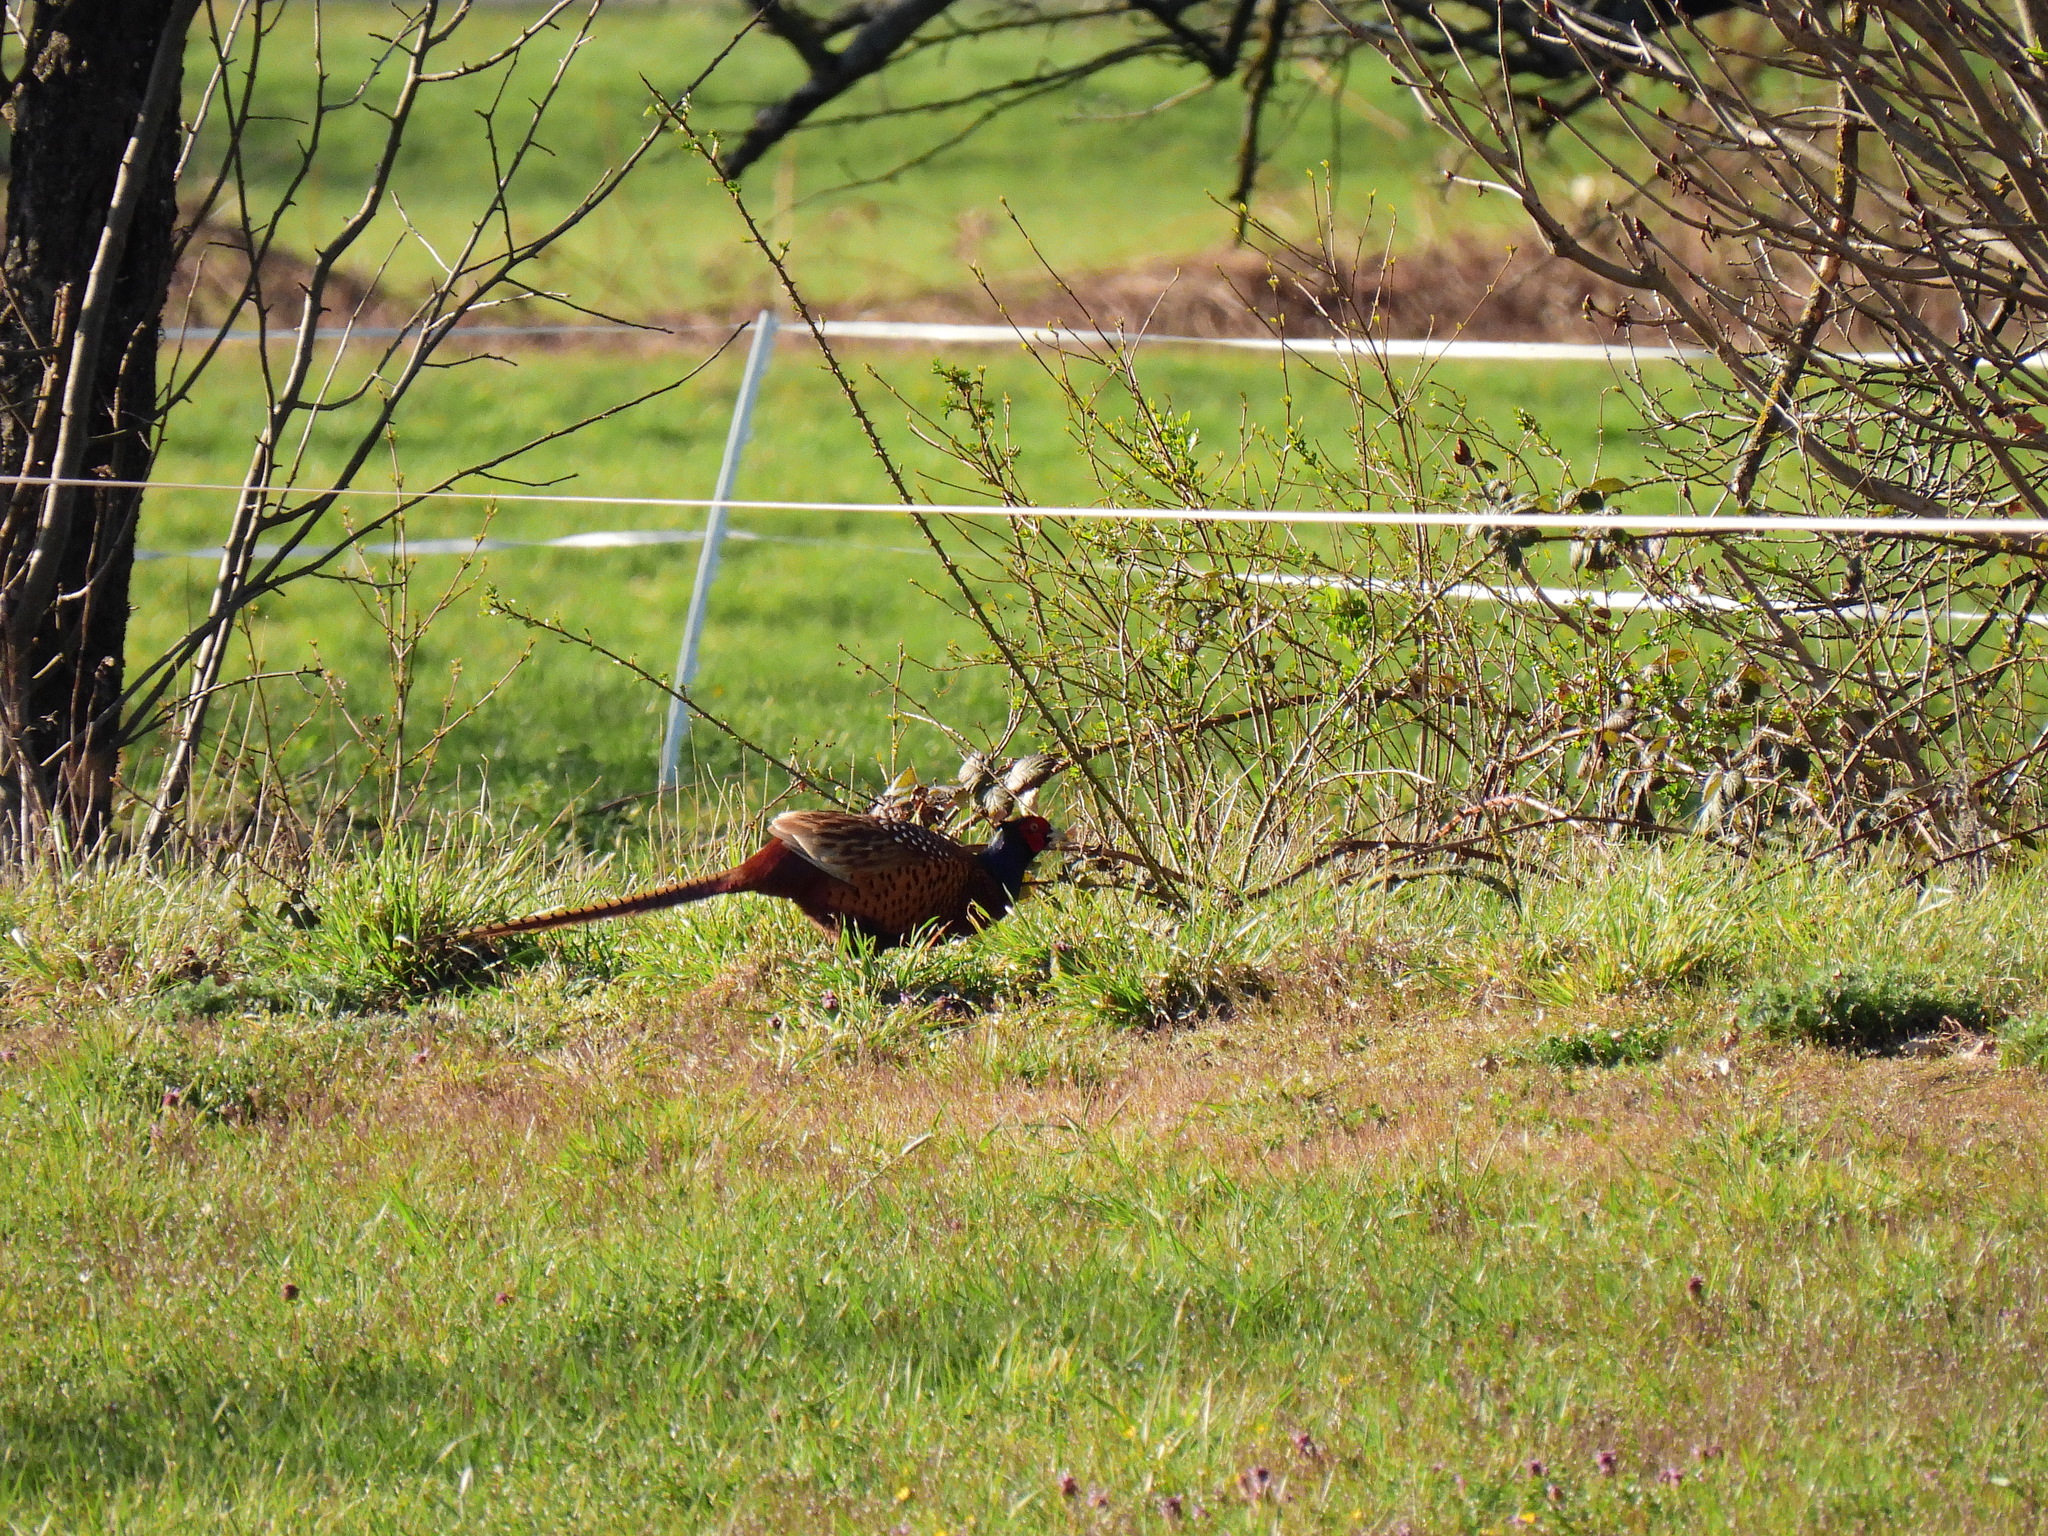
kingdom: Animalia
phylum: Chordata
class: Aves
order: Galliformes
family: Phasianidae
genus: Phasianus
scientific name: Phasianus colchicus
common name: Common pheasant
